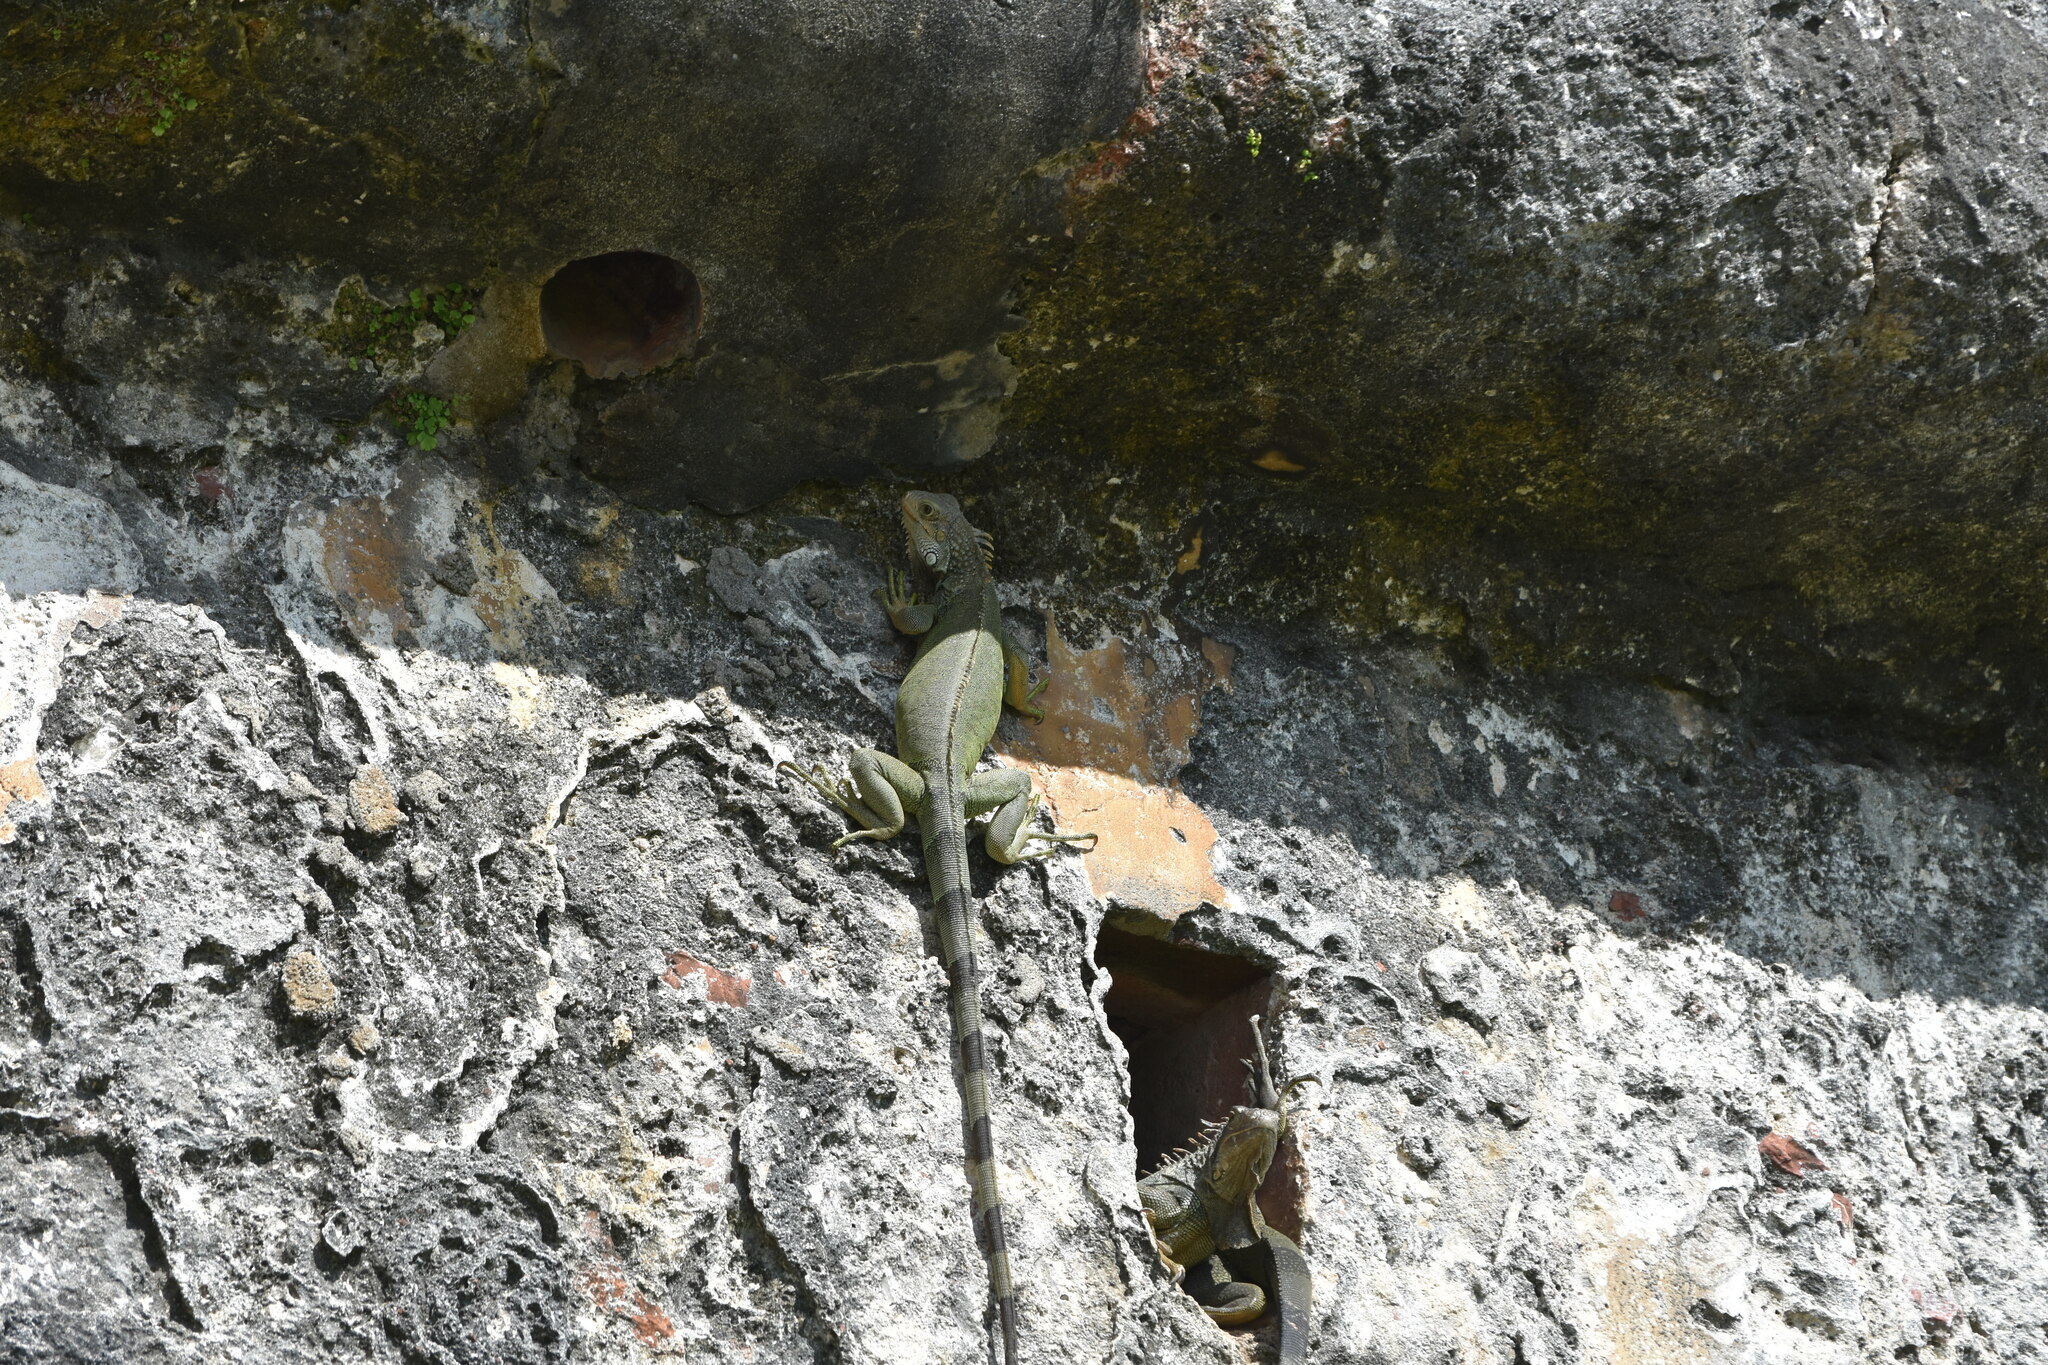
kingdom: Animalia
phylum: Chordata
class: Squamata
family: Iguanidae
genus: Iguana
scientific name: Iguana iguana
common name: Green iguana
